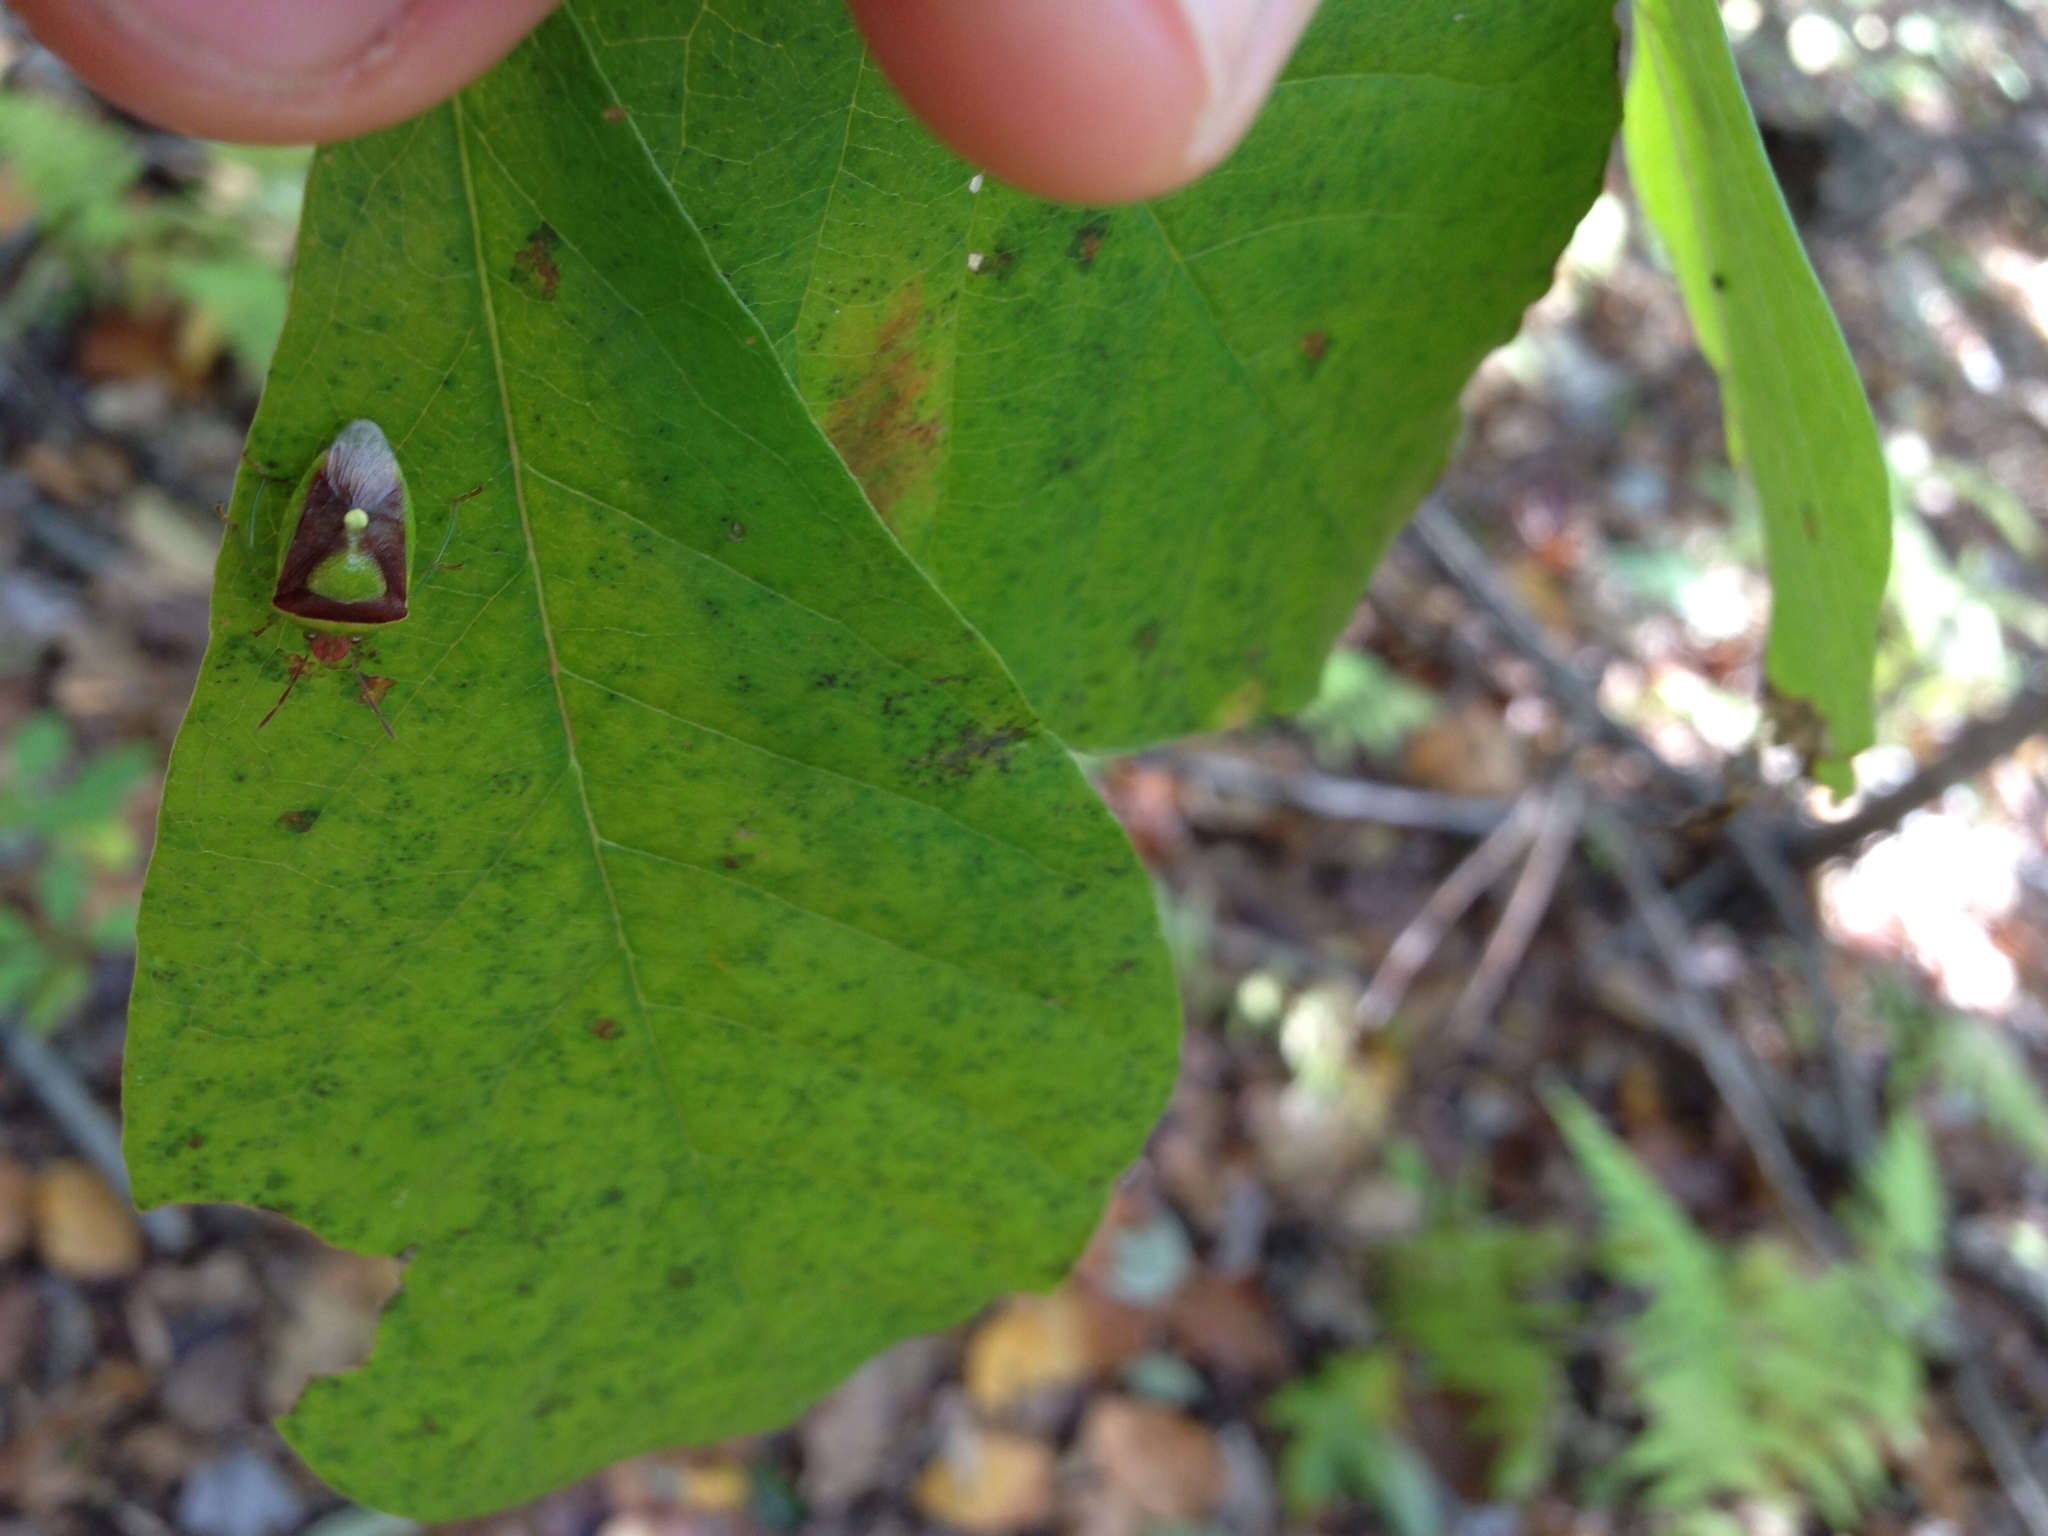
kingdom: Animalia
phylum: Arthropoda
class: Insecta
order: Hemiptera
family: Pentatomidae
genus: Banasa
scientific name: Banasa dimidiata
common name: Green burgundy stink bug
